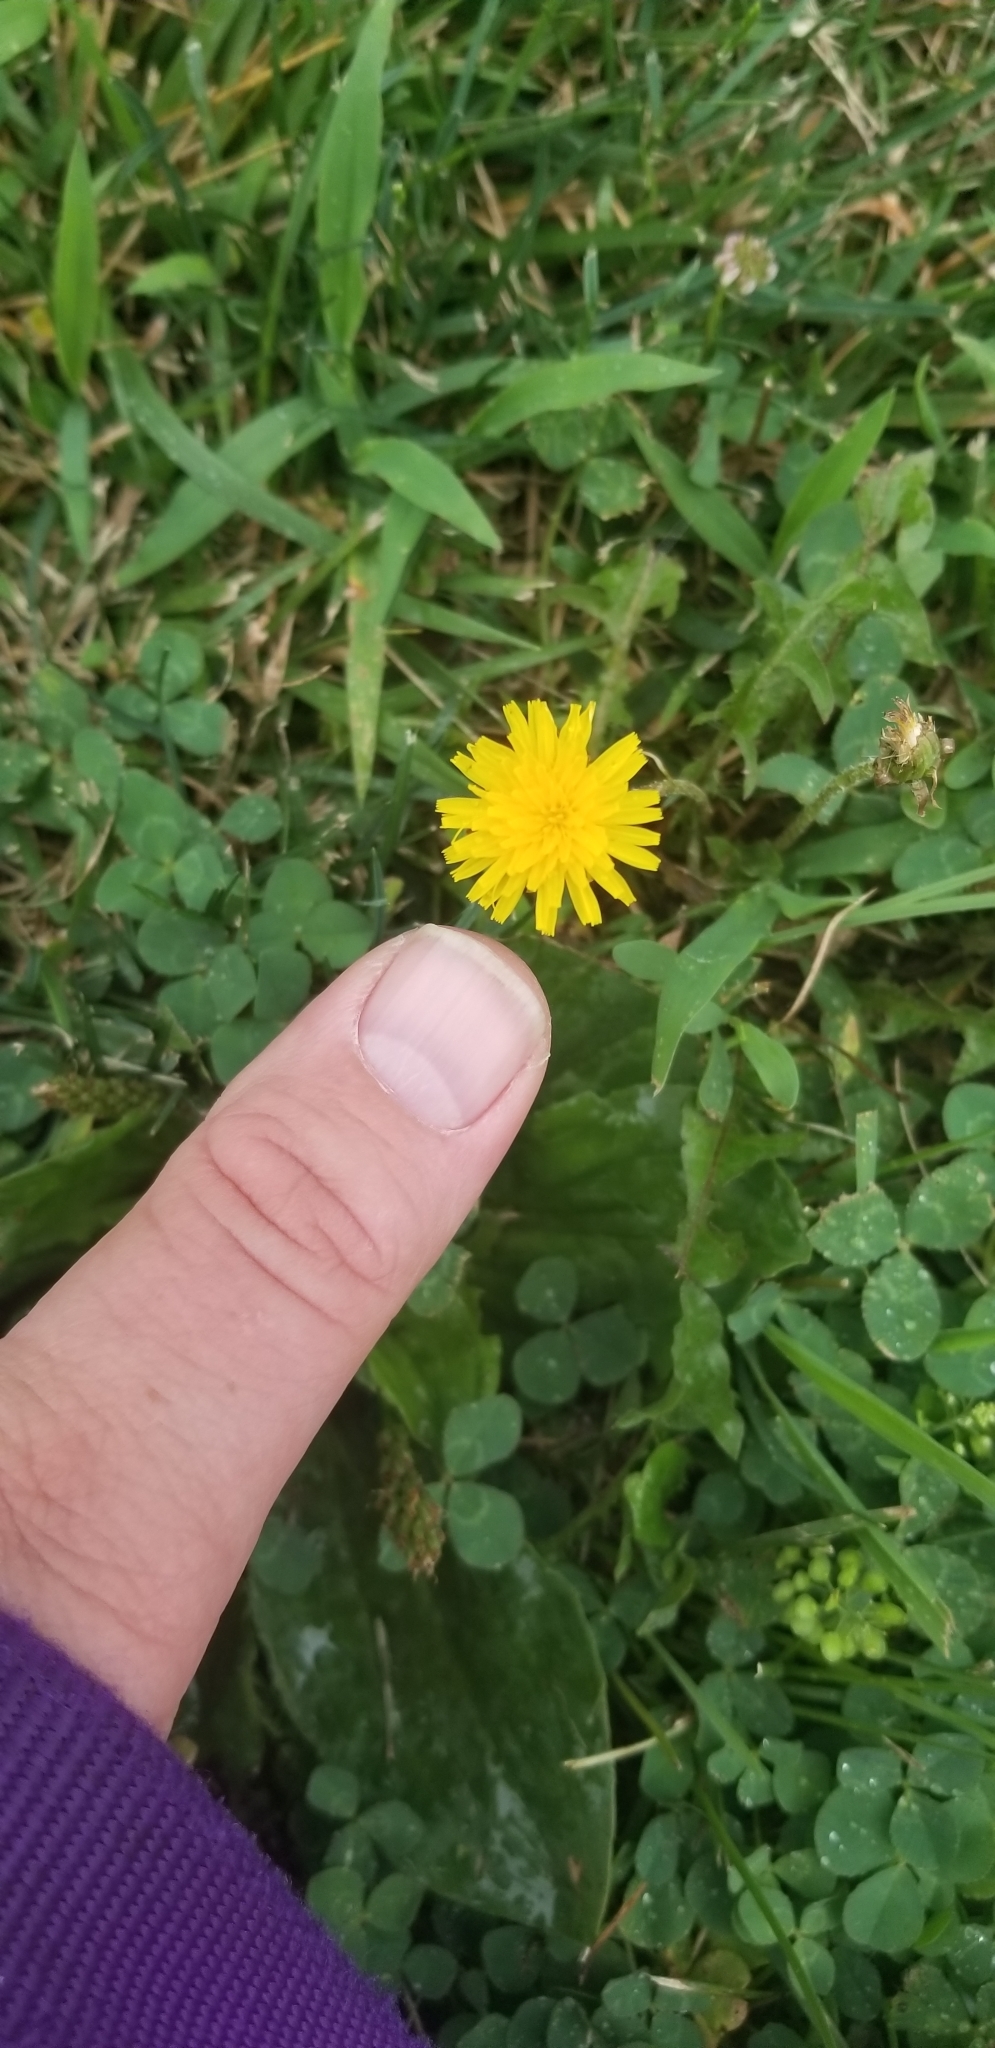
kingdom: Plantae
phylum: Tracheophyta
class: Magnoliopsida
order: Asterales
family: Asteraceae
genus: Taraxacum
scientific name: Taraxacum officinale
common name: Common dandelion
